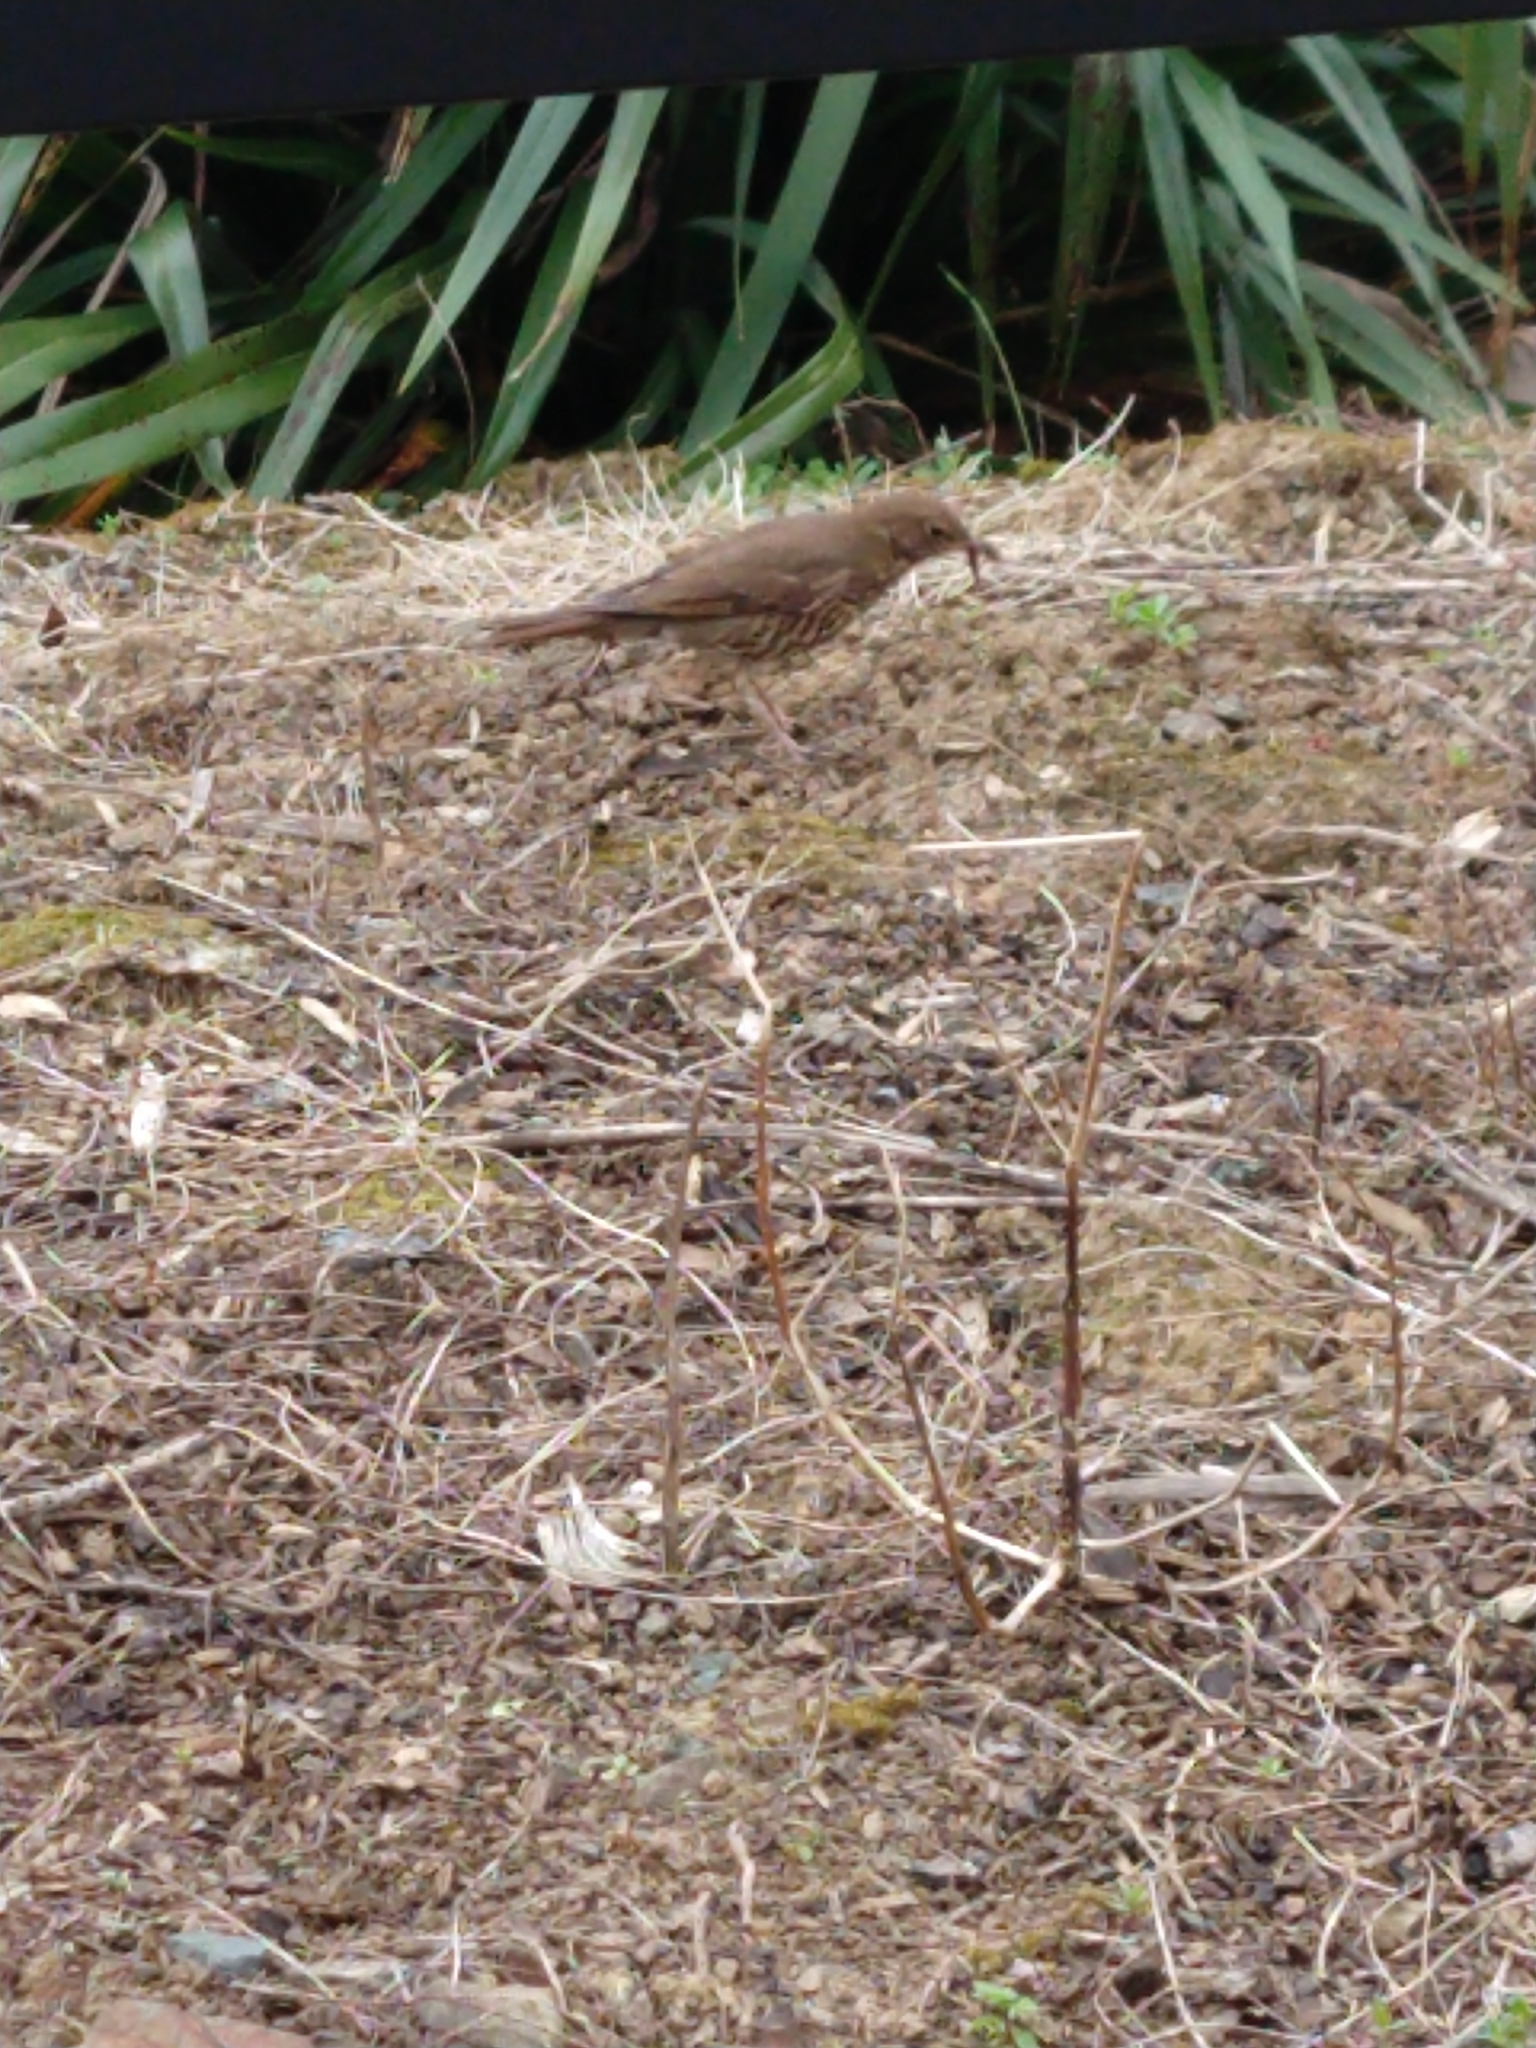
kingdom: Animalia
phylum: Chordata
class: Aves
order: Passeriformes
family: Turdidae
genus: Turdus
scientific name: Turdus philomelos
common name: Song thrush
